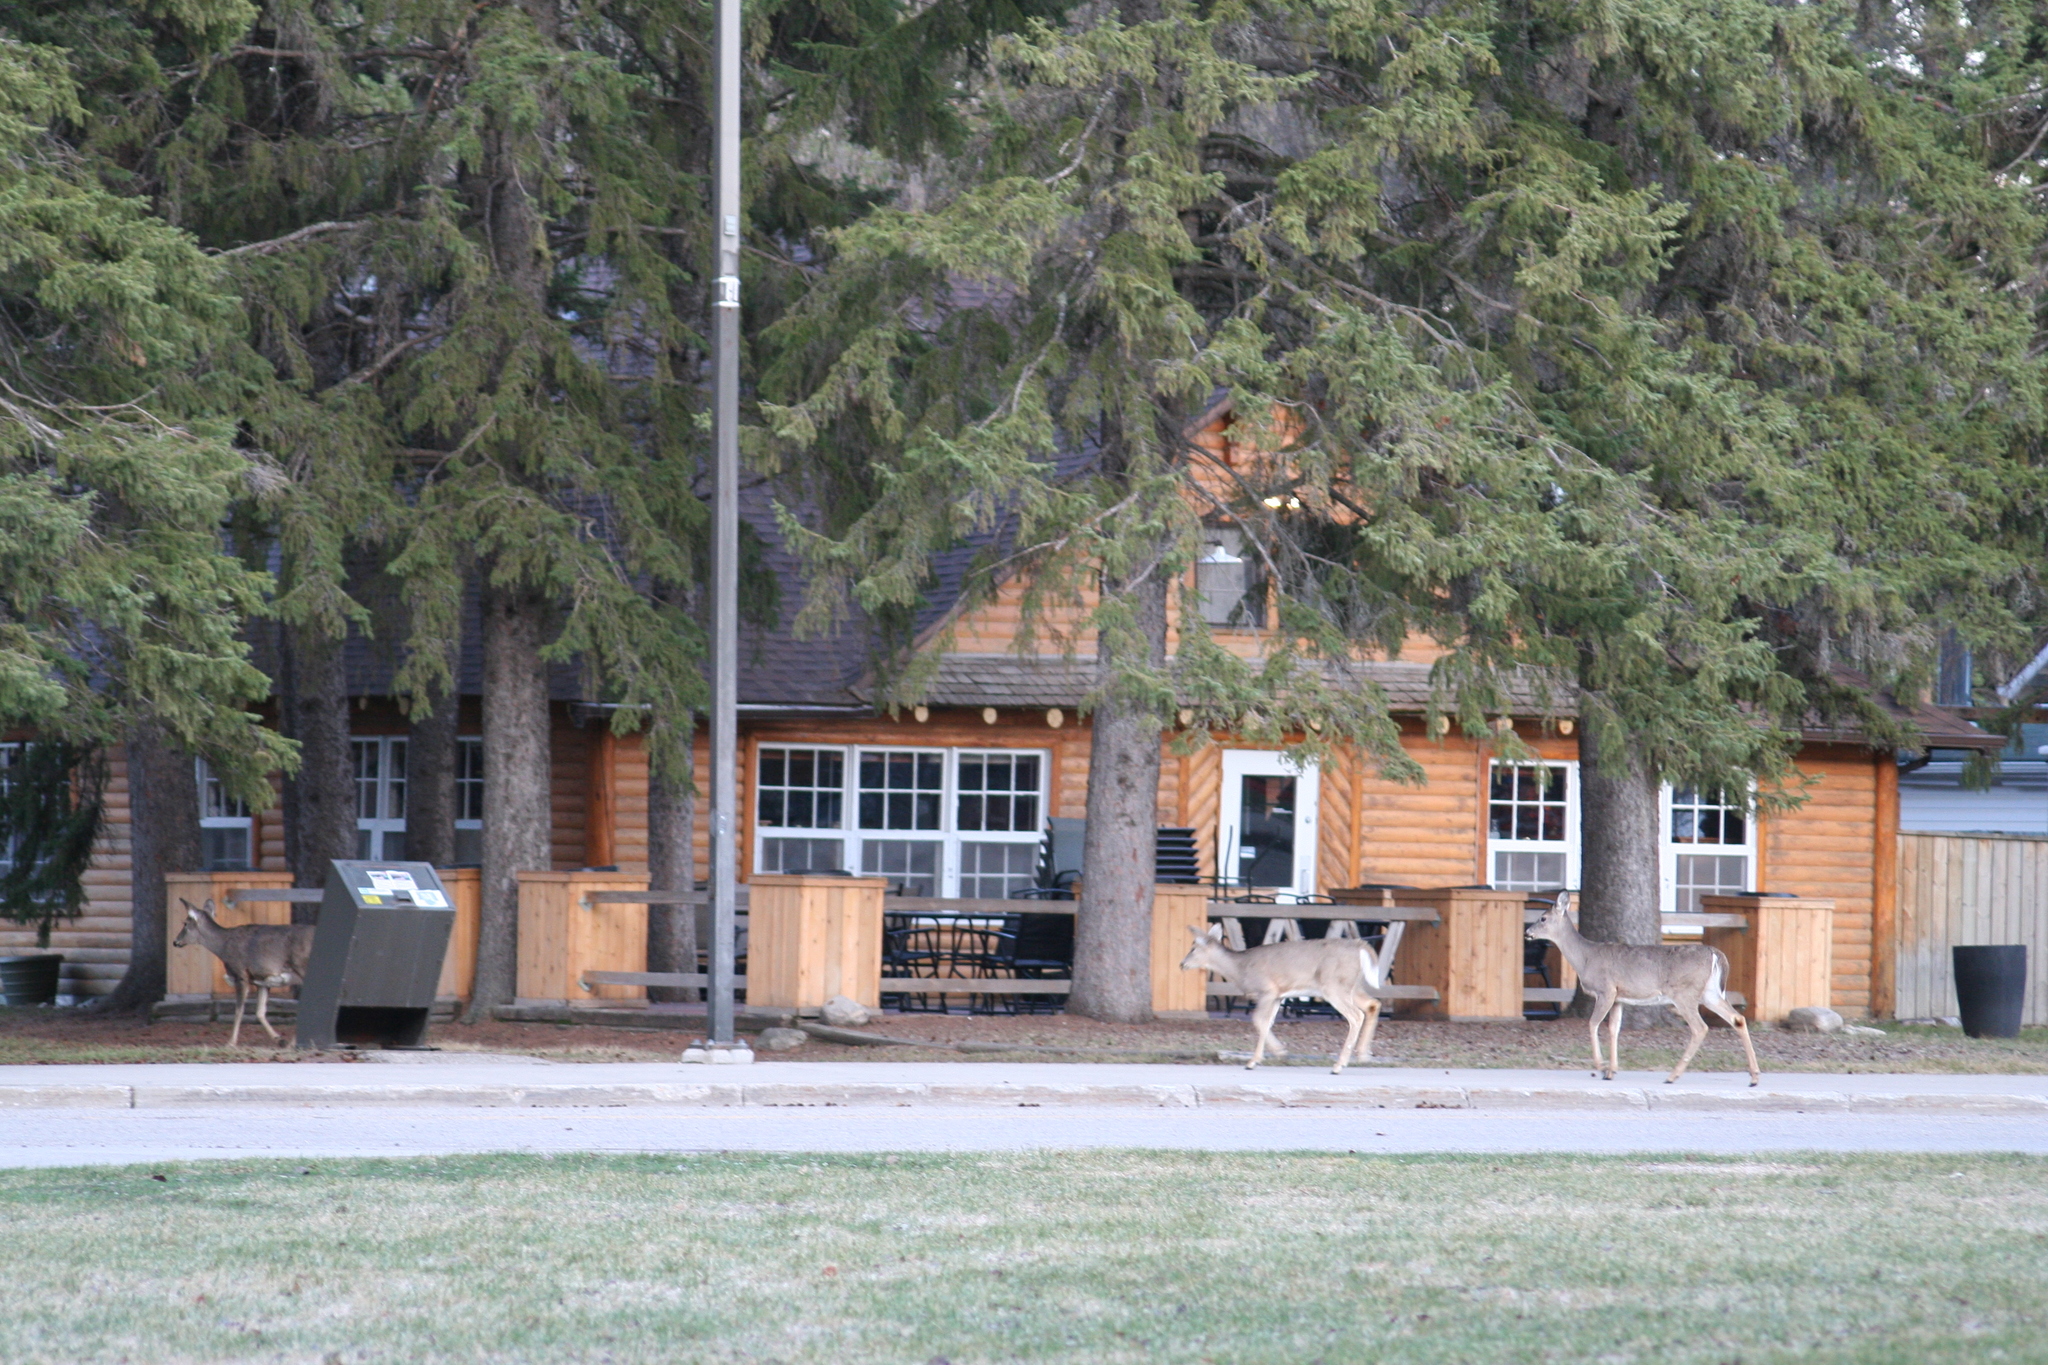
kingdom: Animalia
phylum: Chordata
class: Mammalia
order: Artiodactyla
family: Cervidae
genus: Odocoileus
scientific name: Odocoileus virginianus
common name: White-tailed deer
